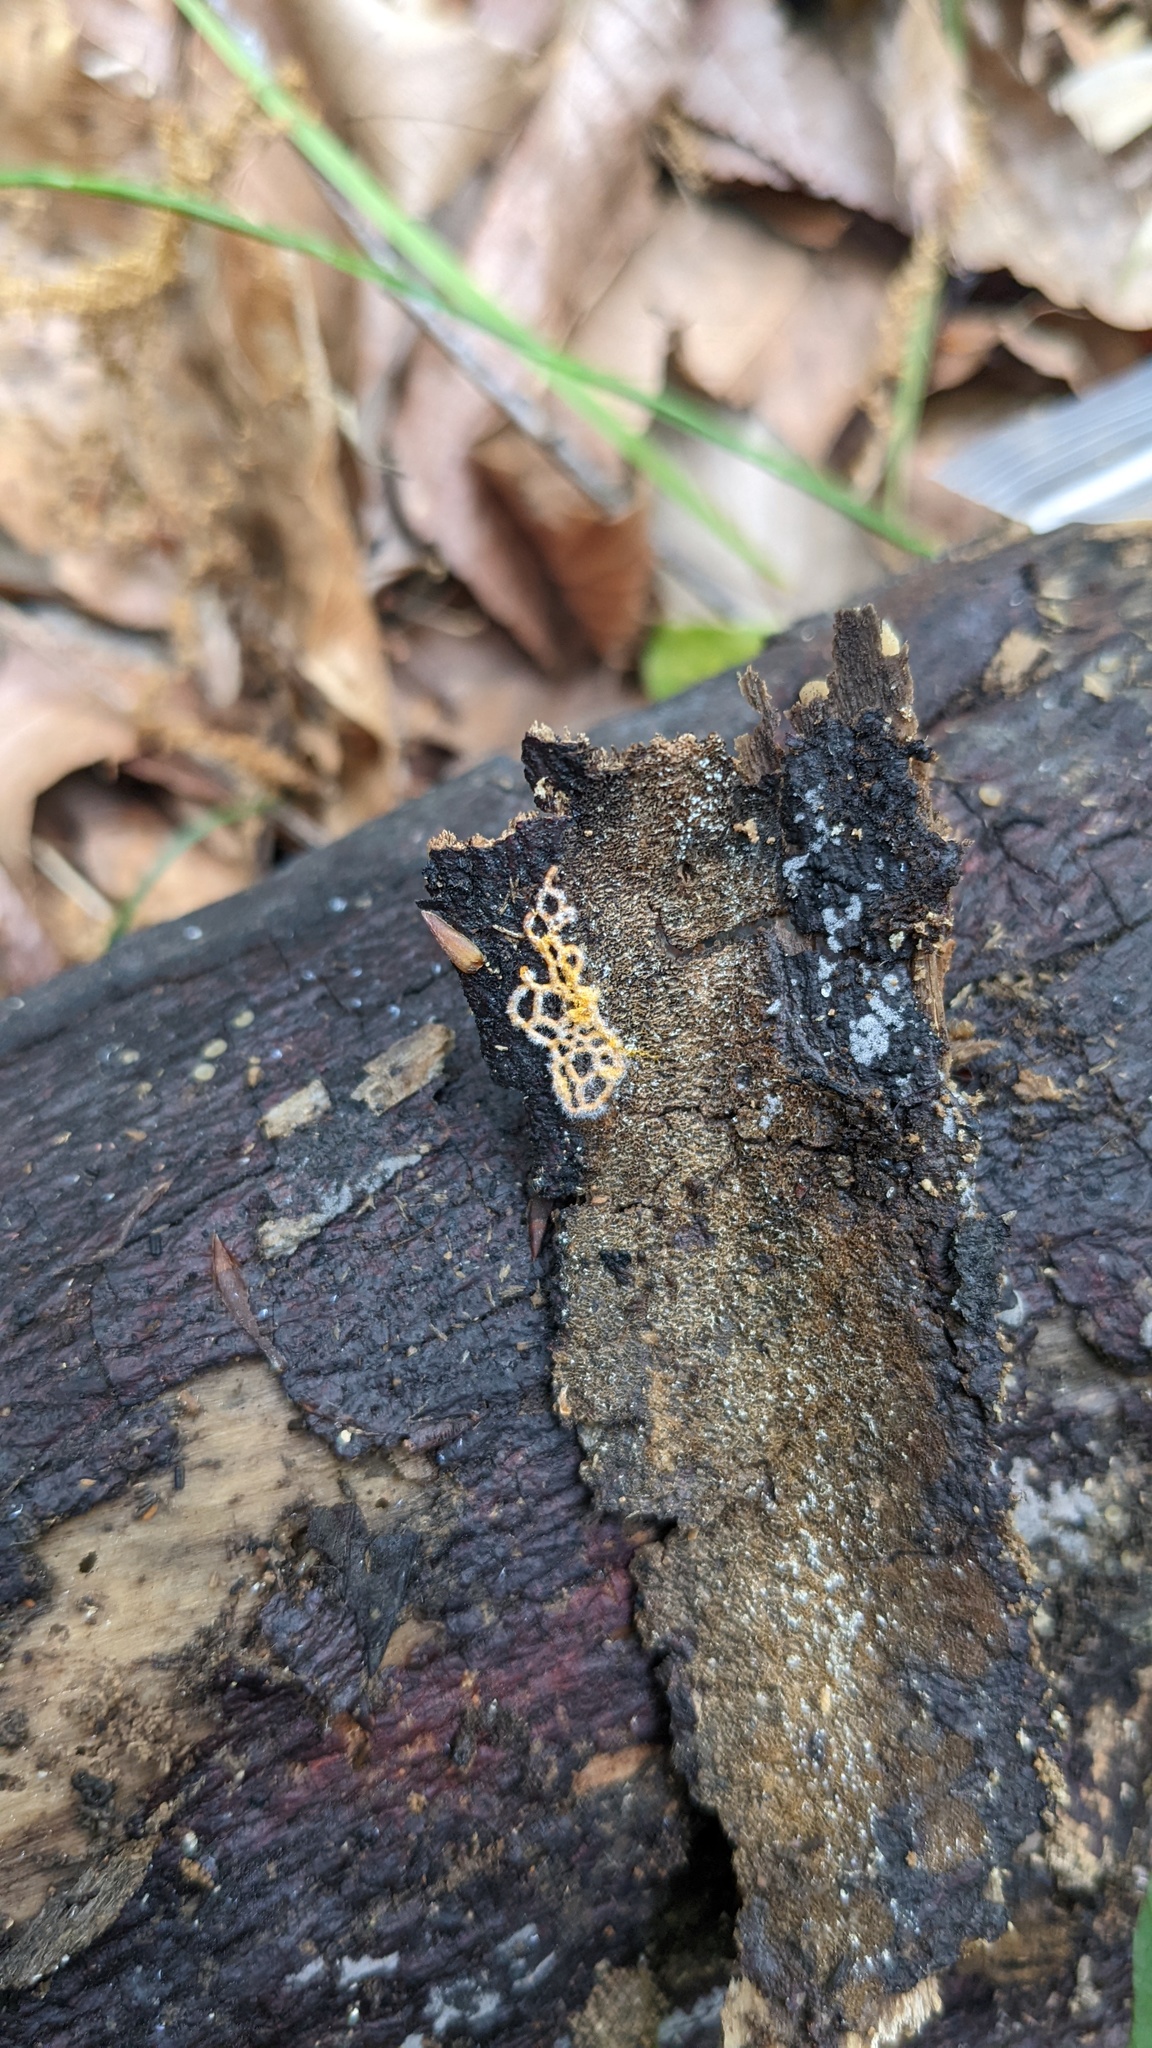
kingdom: Protozoa
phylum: Mycetozoa
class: Myxomycetes
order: Trichiales
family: Arcyriaceae
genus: Hemitrichia
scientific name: Hemitrichia serpula
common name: Pretzel slime mold
